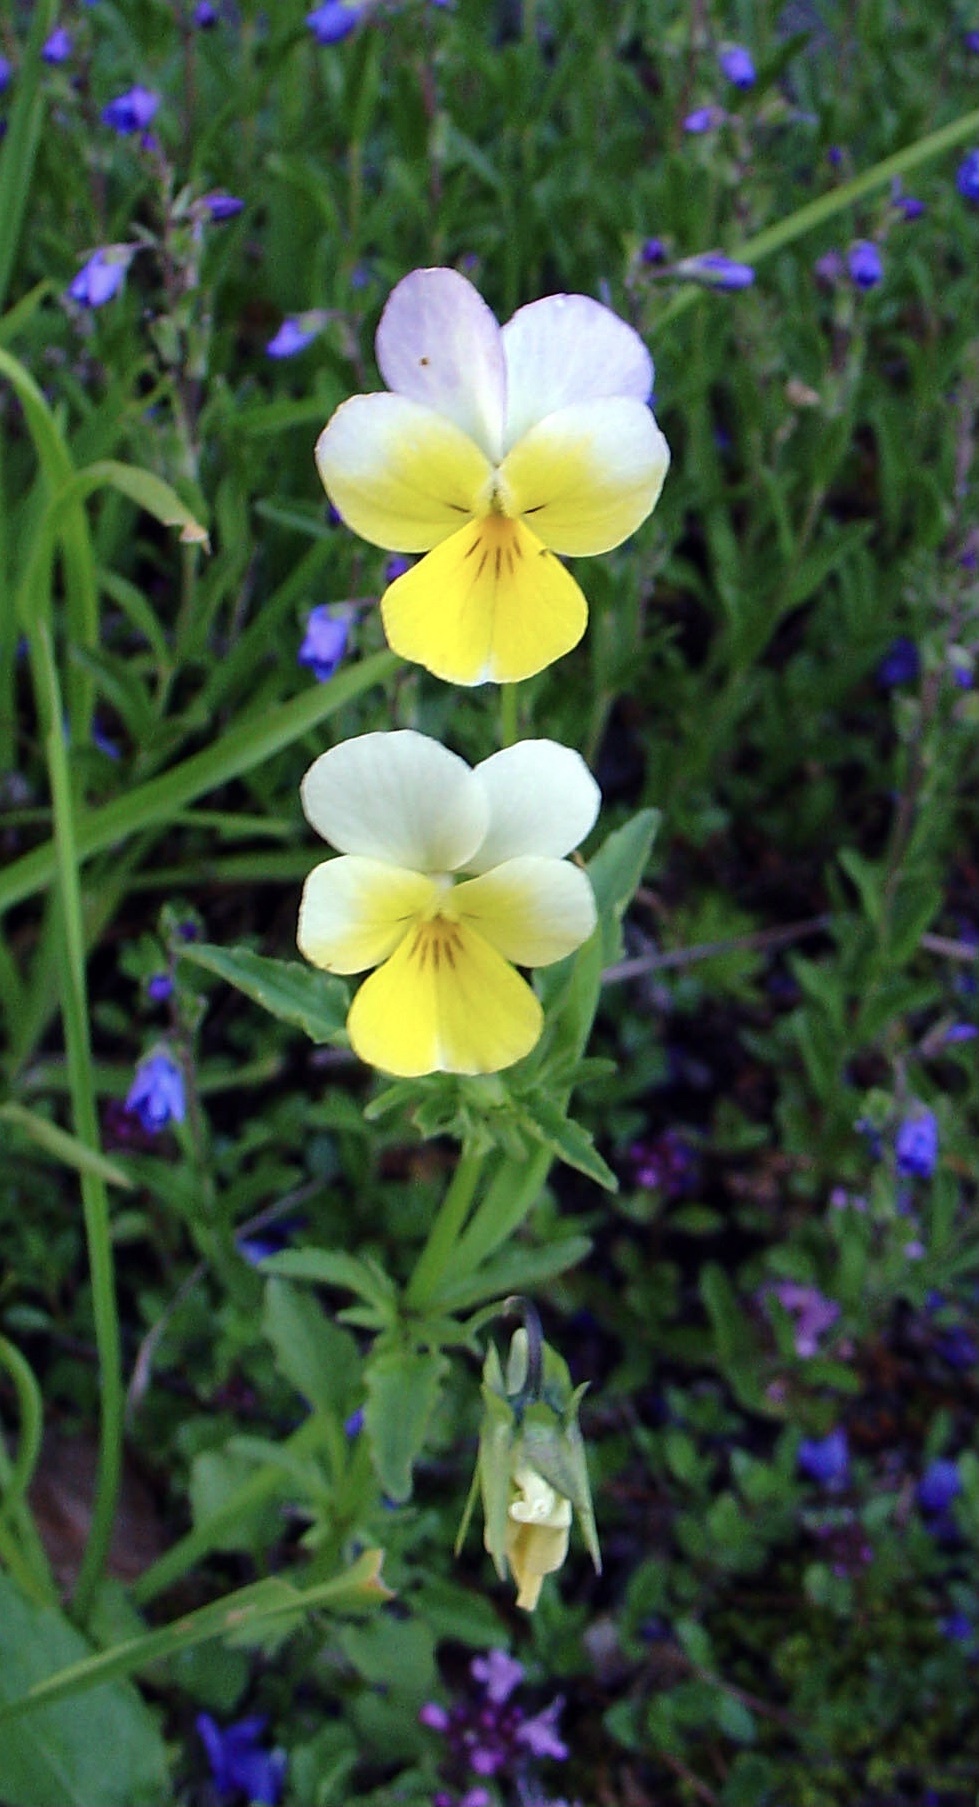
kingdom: Plantae
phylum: Tracheophyta
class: Magnoliopsida
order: Malpighiales
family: Violaceae
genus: Viola
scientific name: Viola tricolor
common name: Pansy
